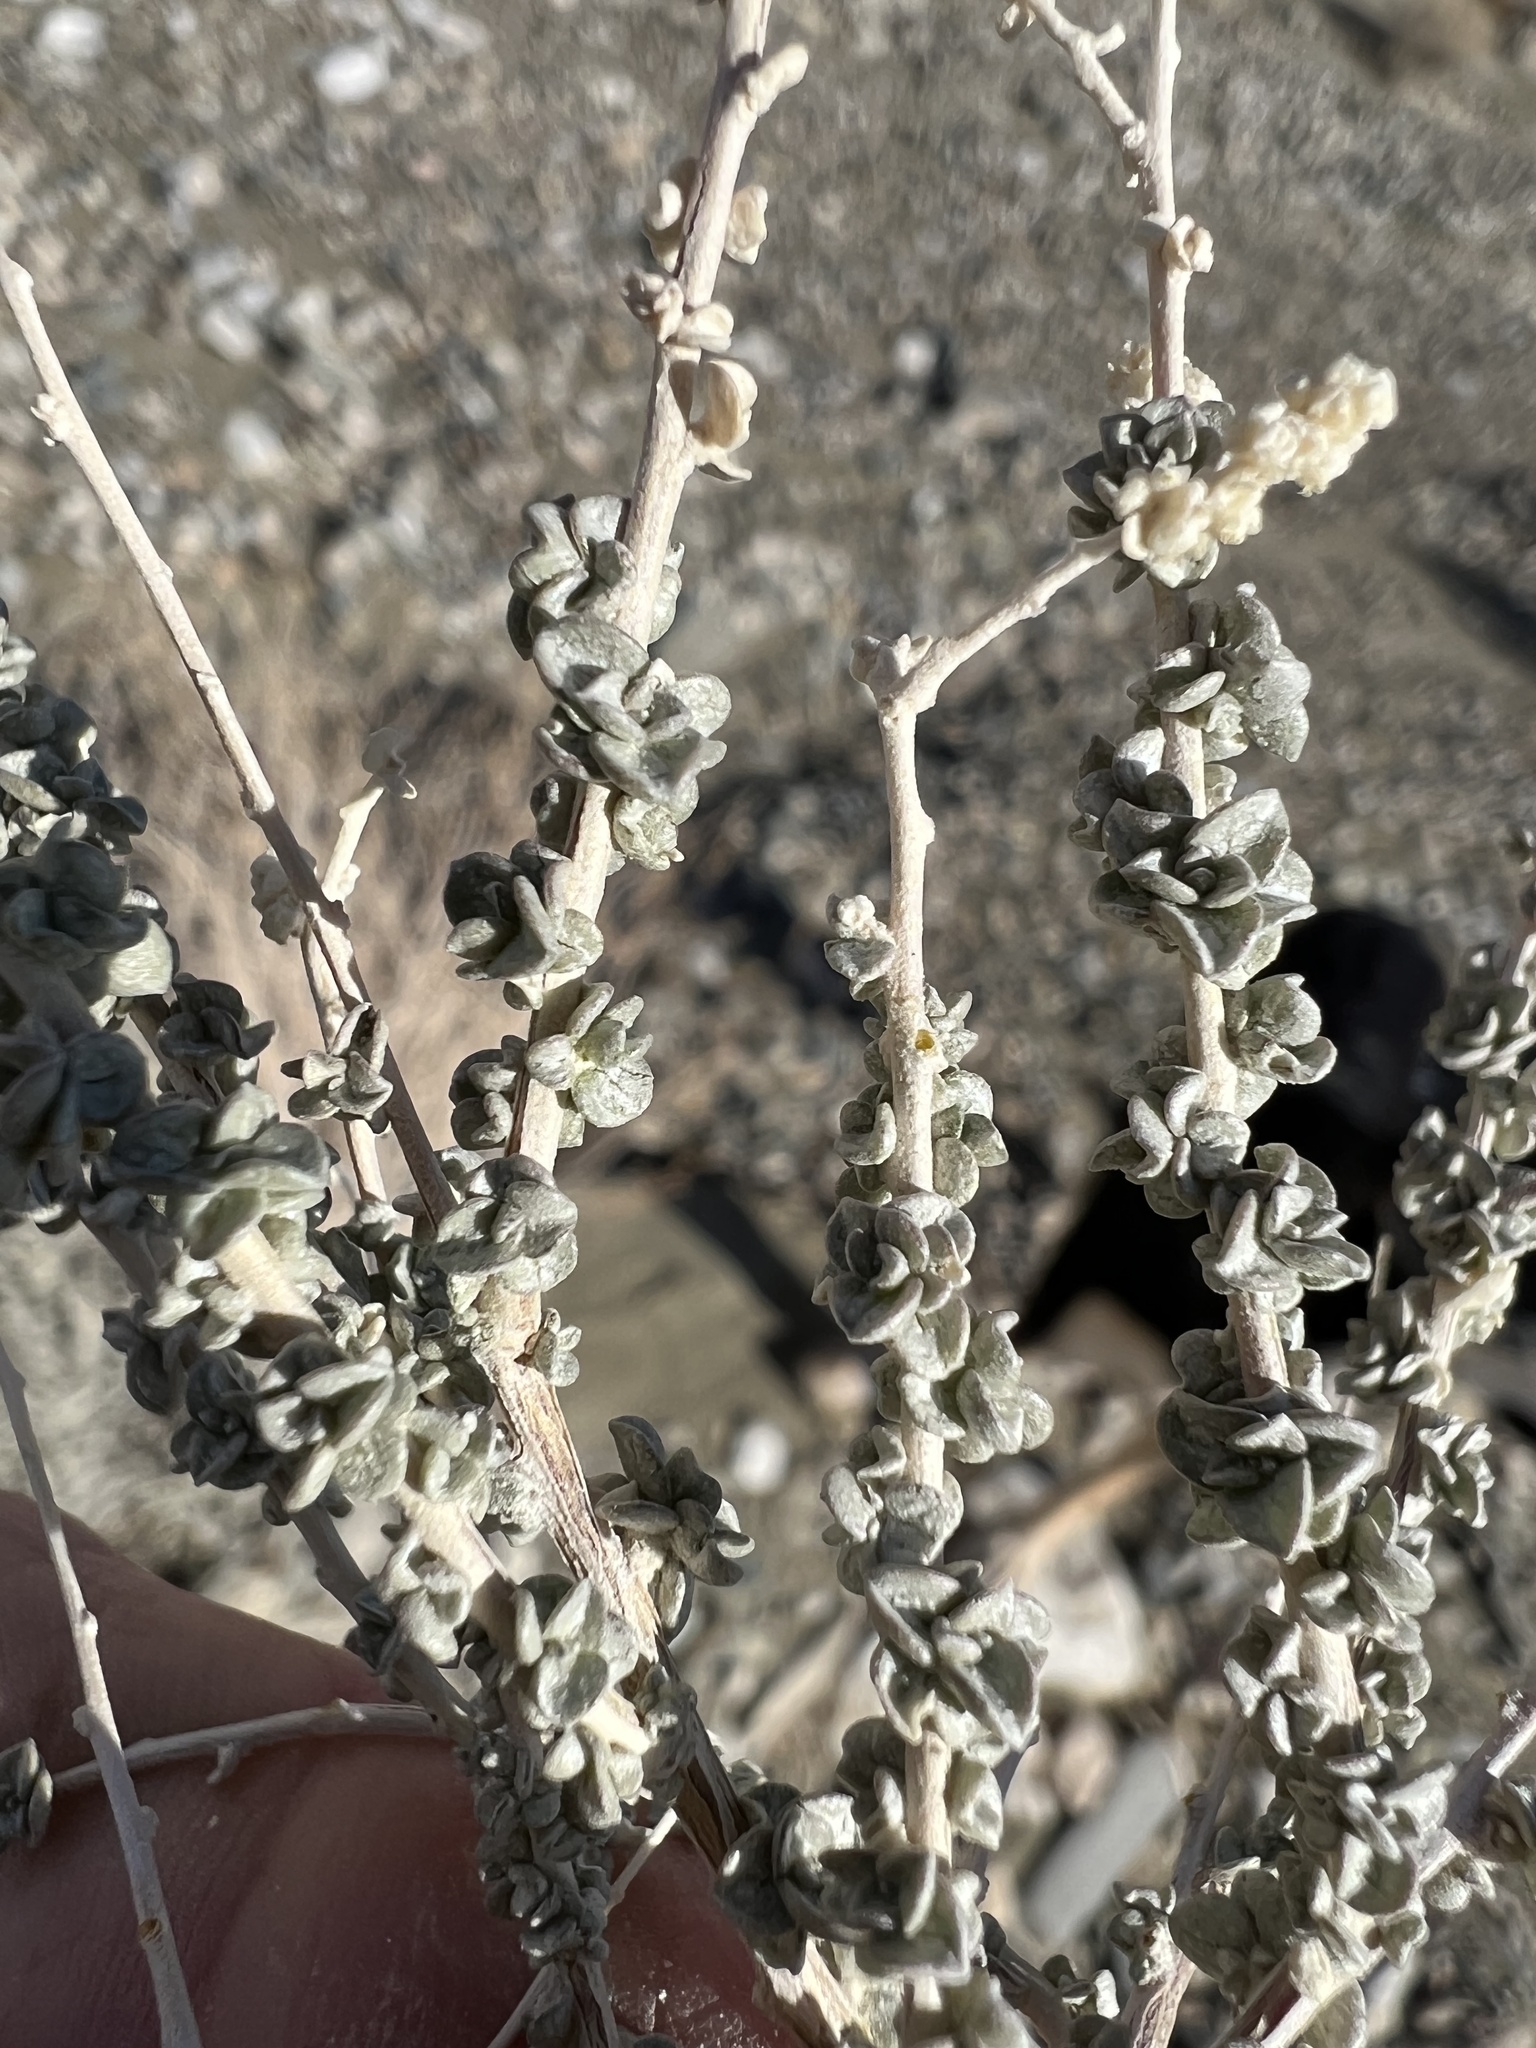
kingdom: Plantae
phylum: Tracheophyta
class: Magnoliopsida
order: Caryophyllales
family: Amaranthaceae
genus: Atriplex
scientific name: Atriplex polycarpa
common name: Desert saltbush
